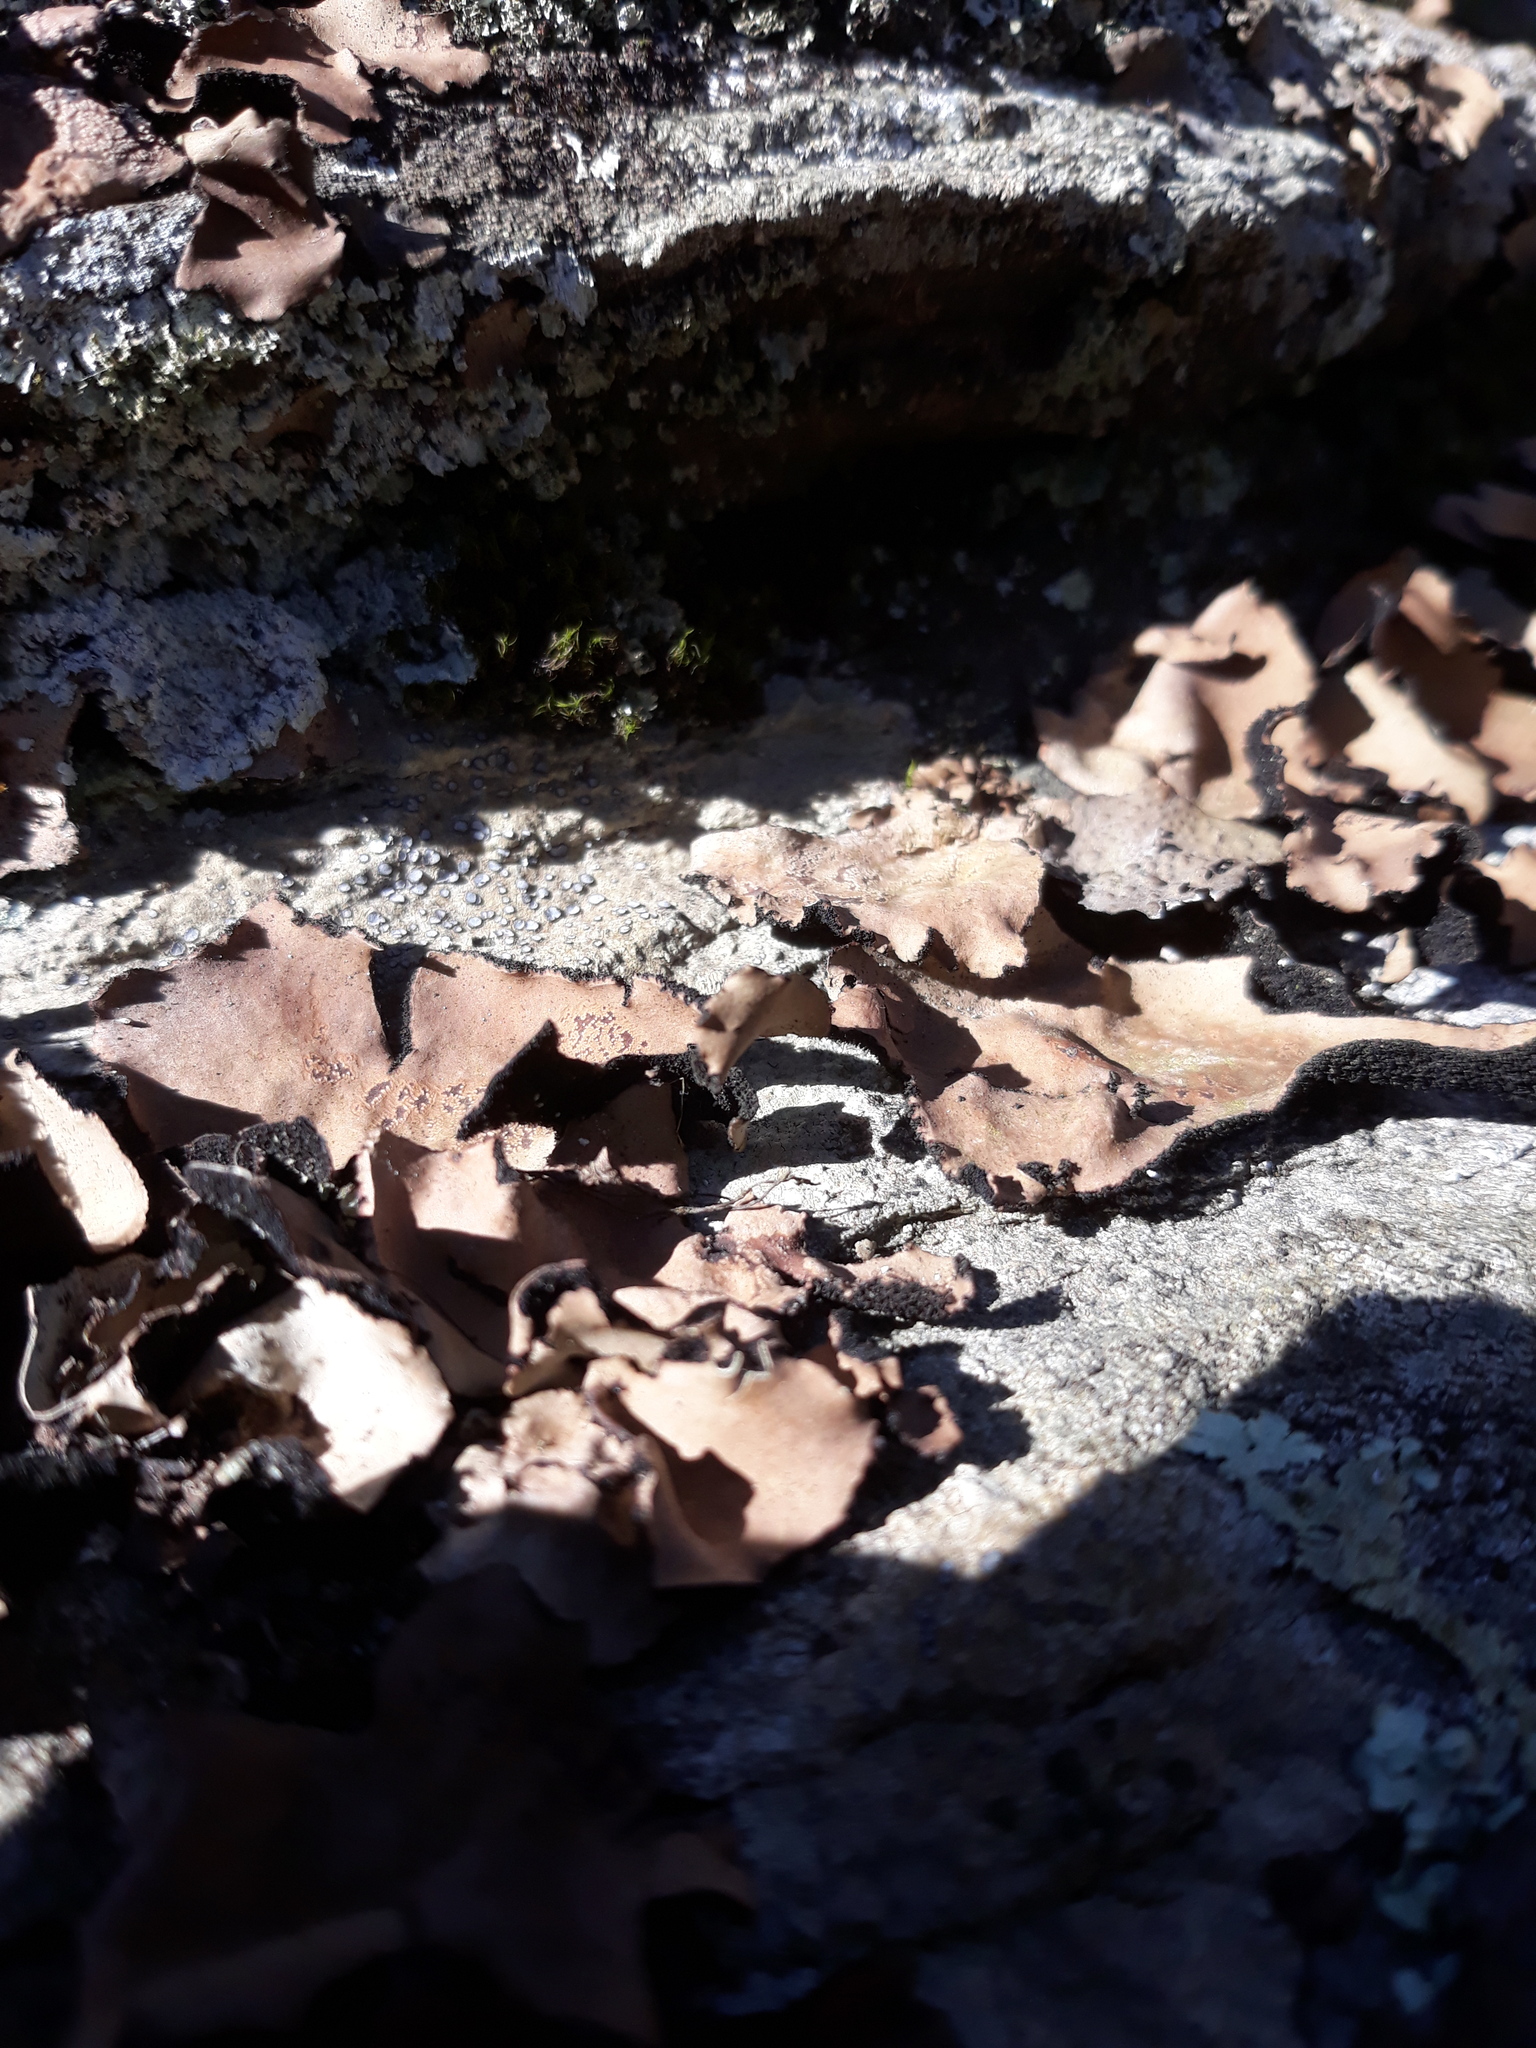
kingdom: Fungi
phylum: Ascomycota
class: Lecanoromycetes
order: Umbilicariales
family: Umbilicariaceae
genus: Umbilicaria
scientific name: Umbilicaria mammulata
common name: Smooth rock tripe
